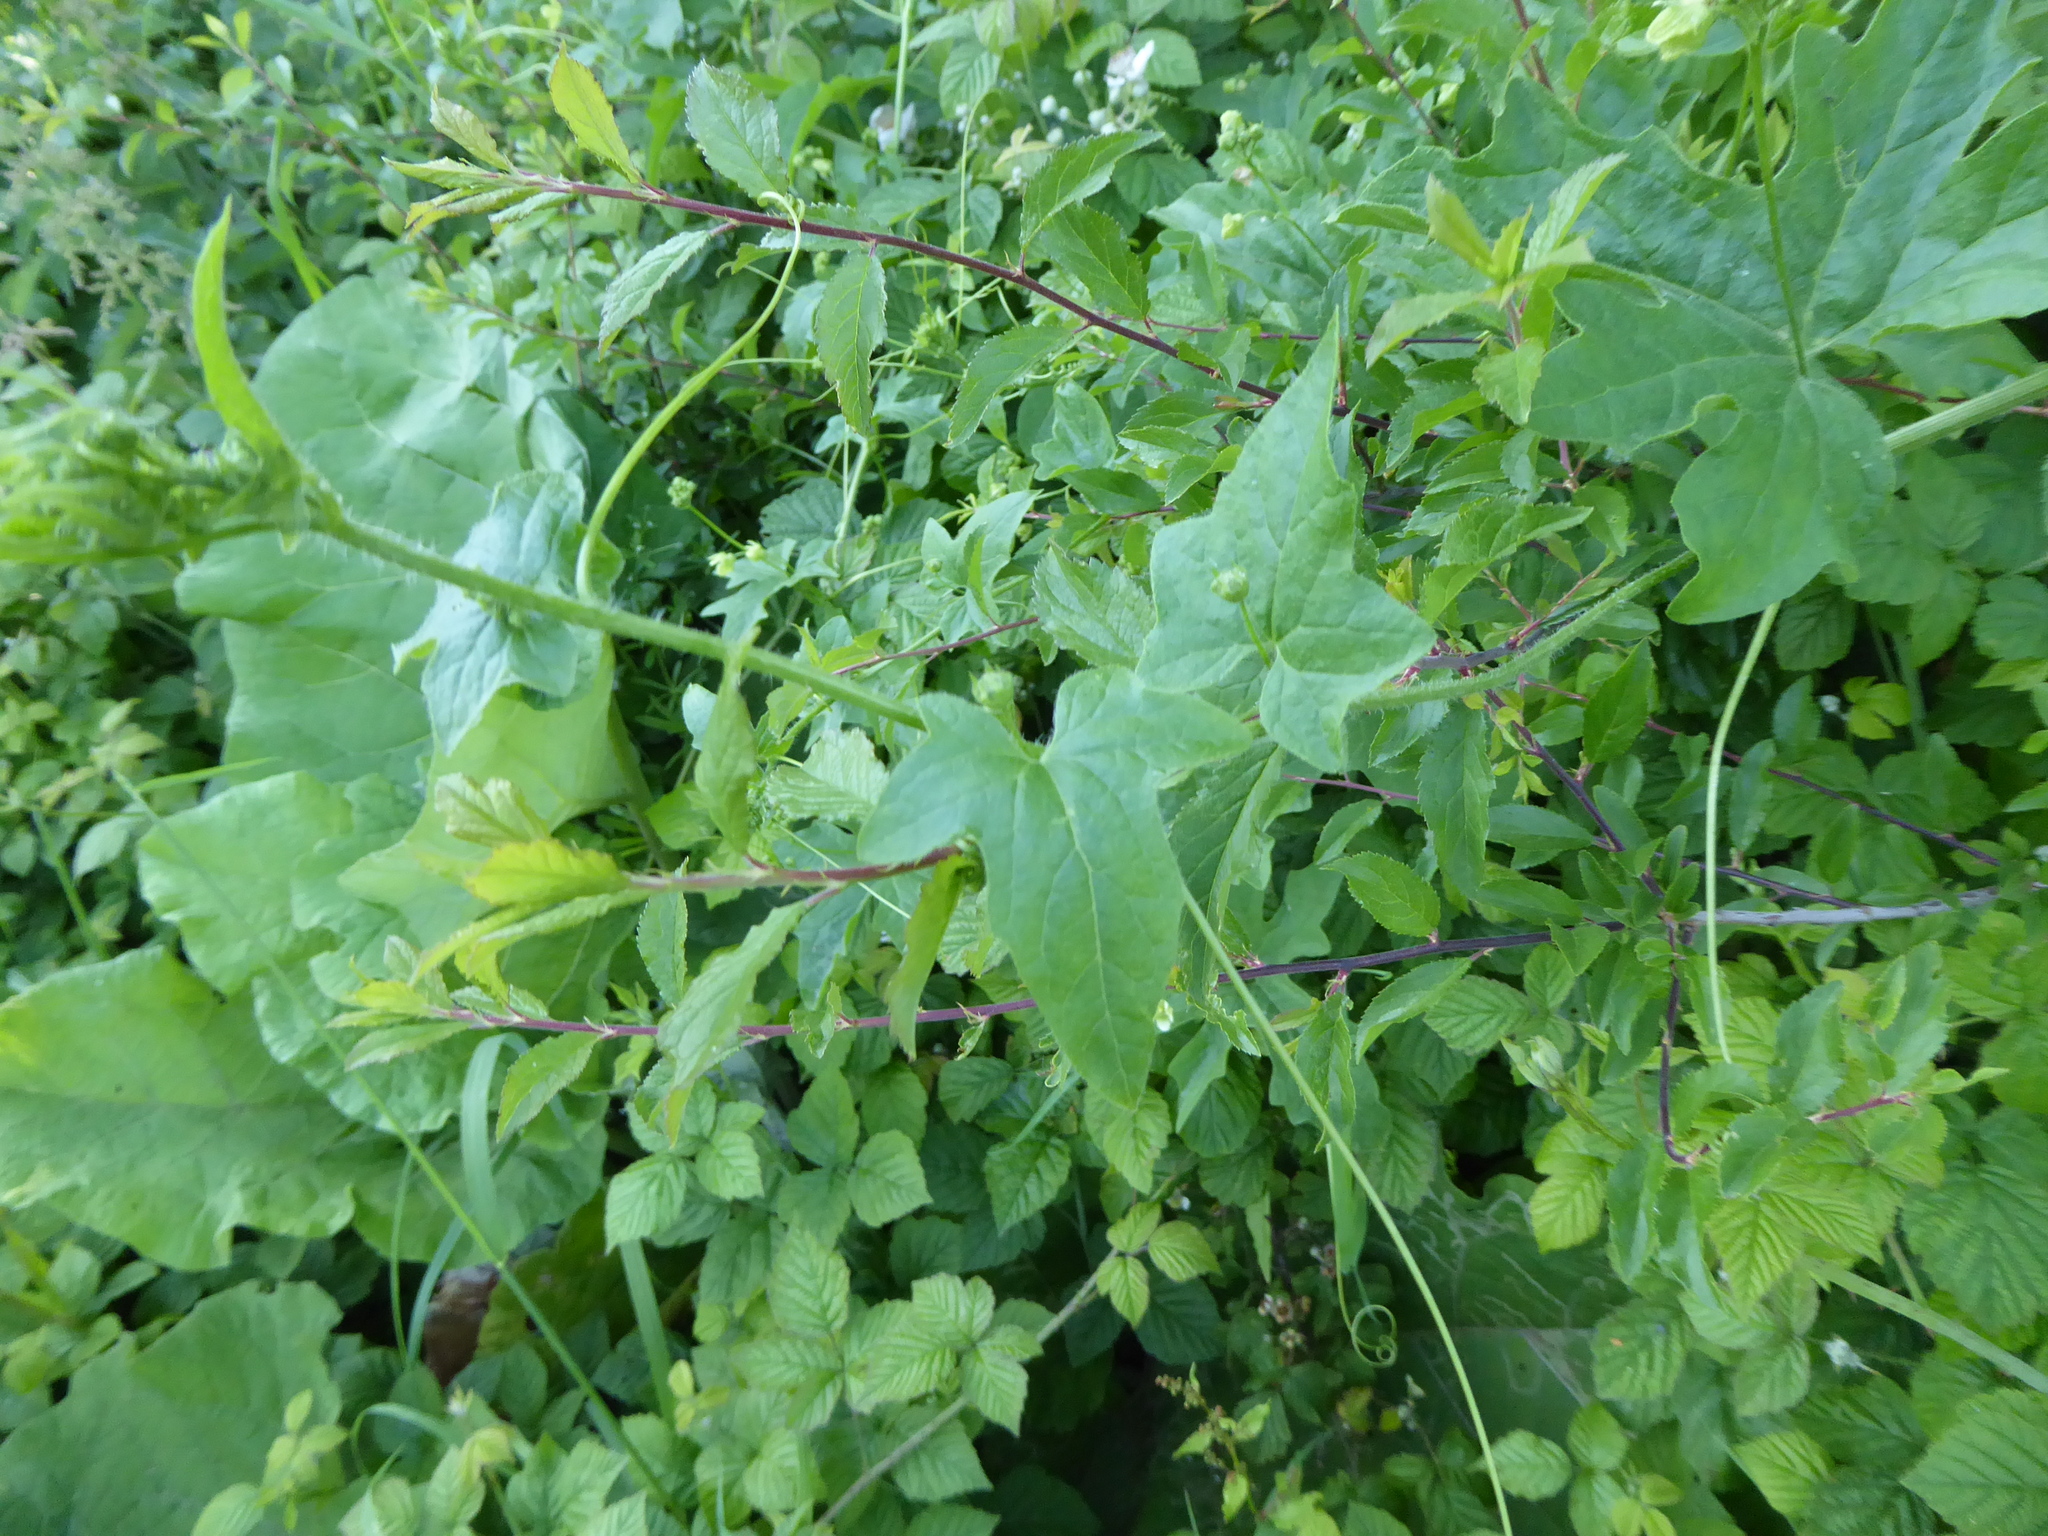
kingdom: Plantae
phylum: Tracheophyta
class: Magnoliopsida
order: Cucurbitales
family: Cucurbitaceae
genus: Bryonia
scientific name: Bryonia cretica
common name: Cretan bryony
